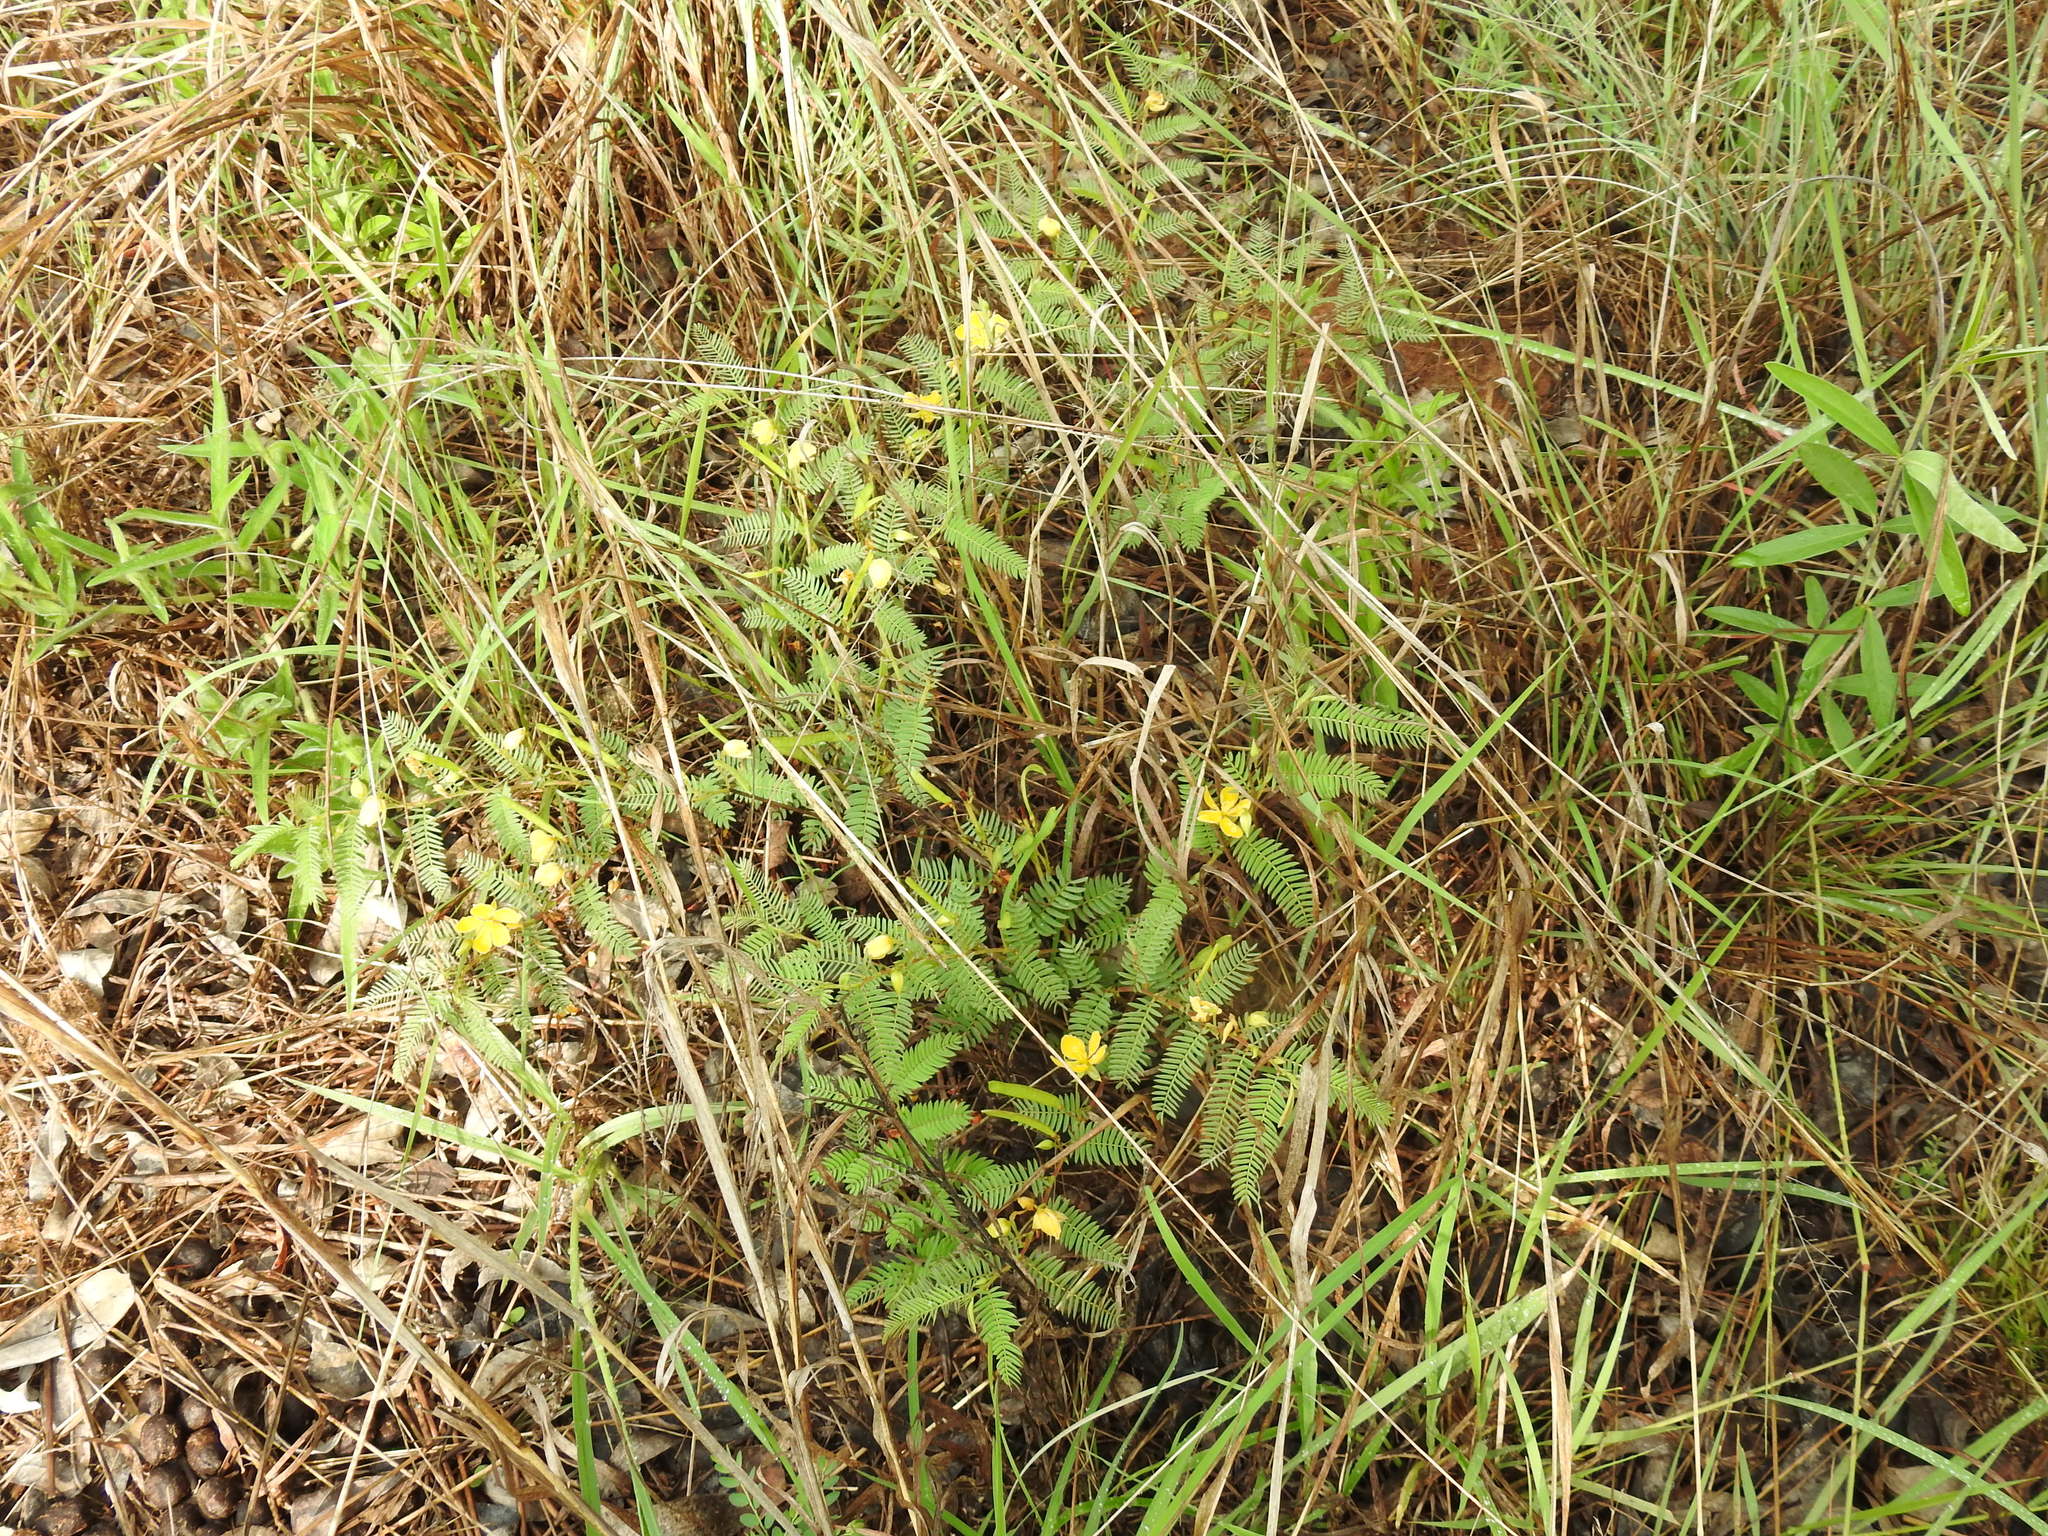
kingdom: Plantae
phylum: Tracheophyta
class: Magnoliopsida
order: Fabales
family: Fabaceae
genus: Chamaecrista
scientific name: Chamaecrista comosa
